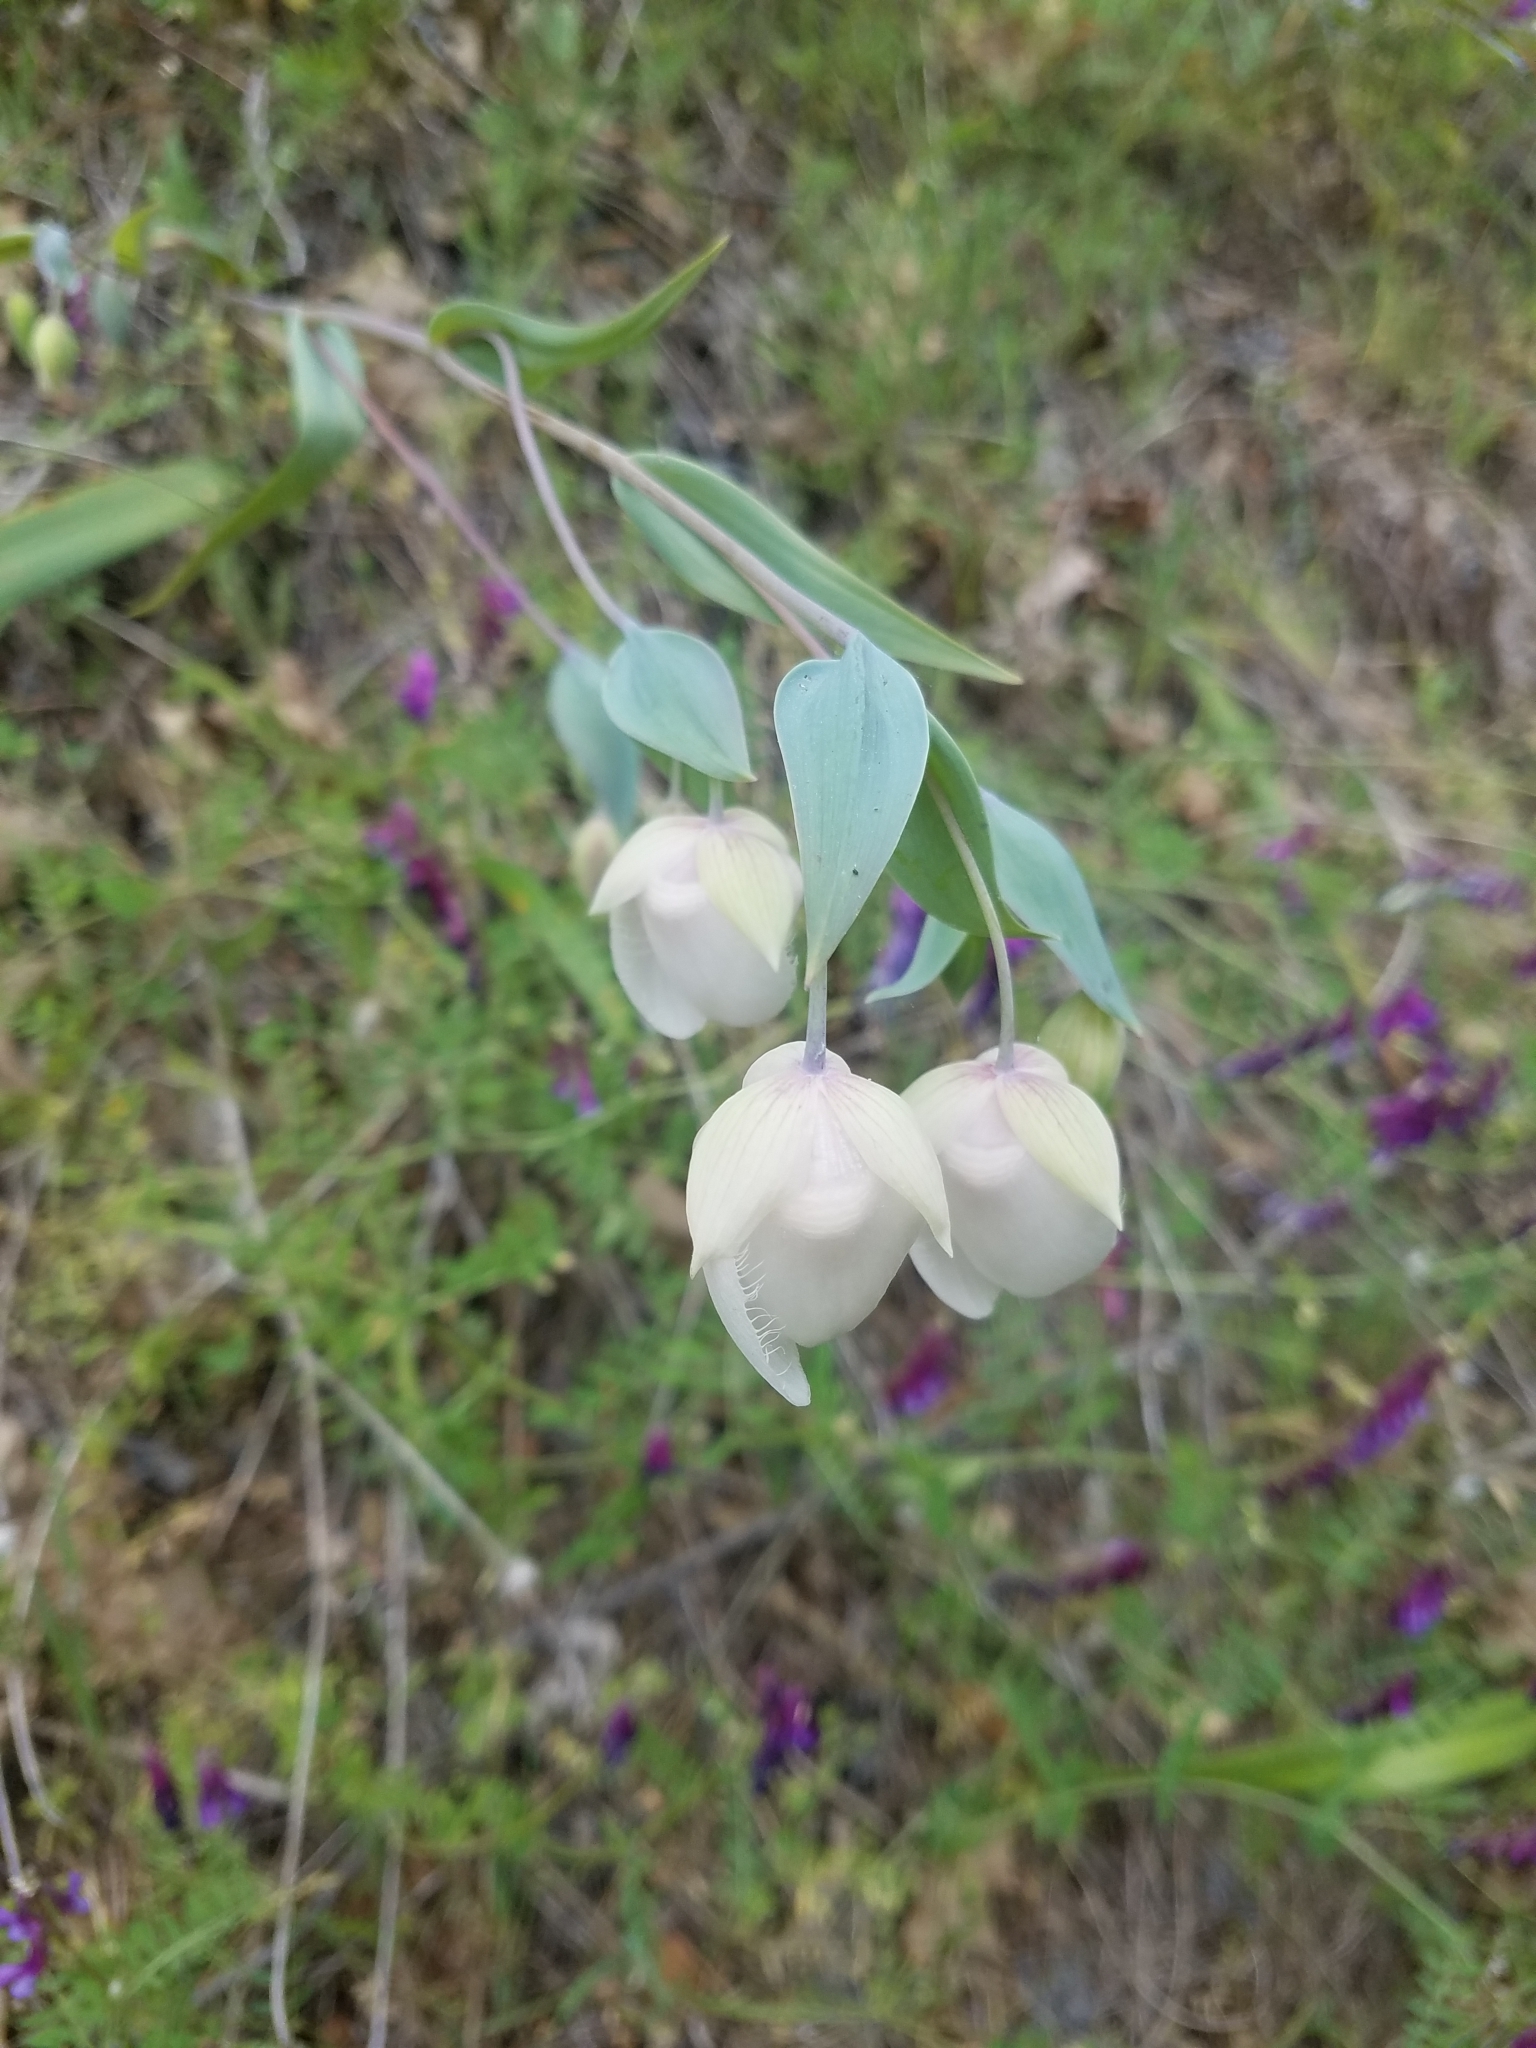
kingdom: Plantae
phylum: Tracheophyta
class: Liliopsida
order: Liliales
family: Liliaceae
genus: Calochortus
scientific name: Calochortus albus
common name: Fairy-lantern
